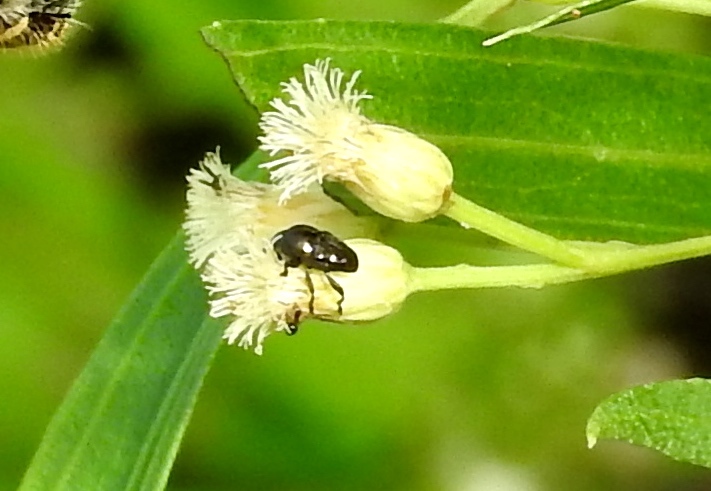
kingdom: Animalia
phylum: Arthropoda
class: Insecta
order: Coleoptera
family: Curculionidae
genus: Baridinae
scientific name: Baridinae
